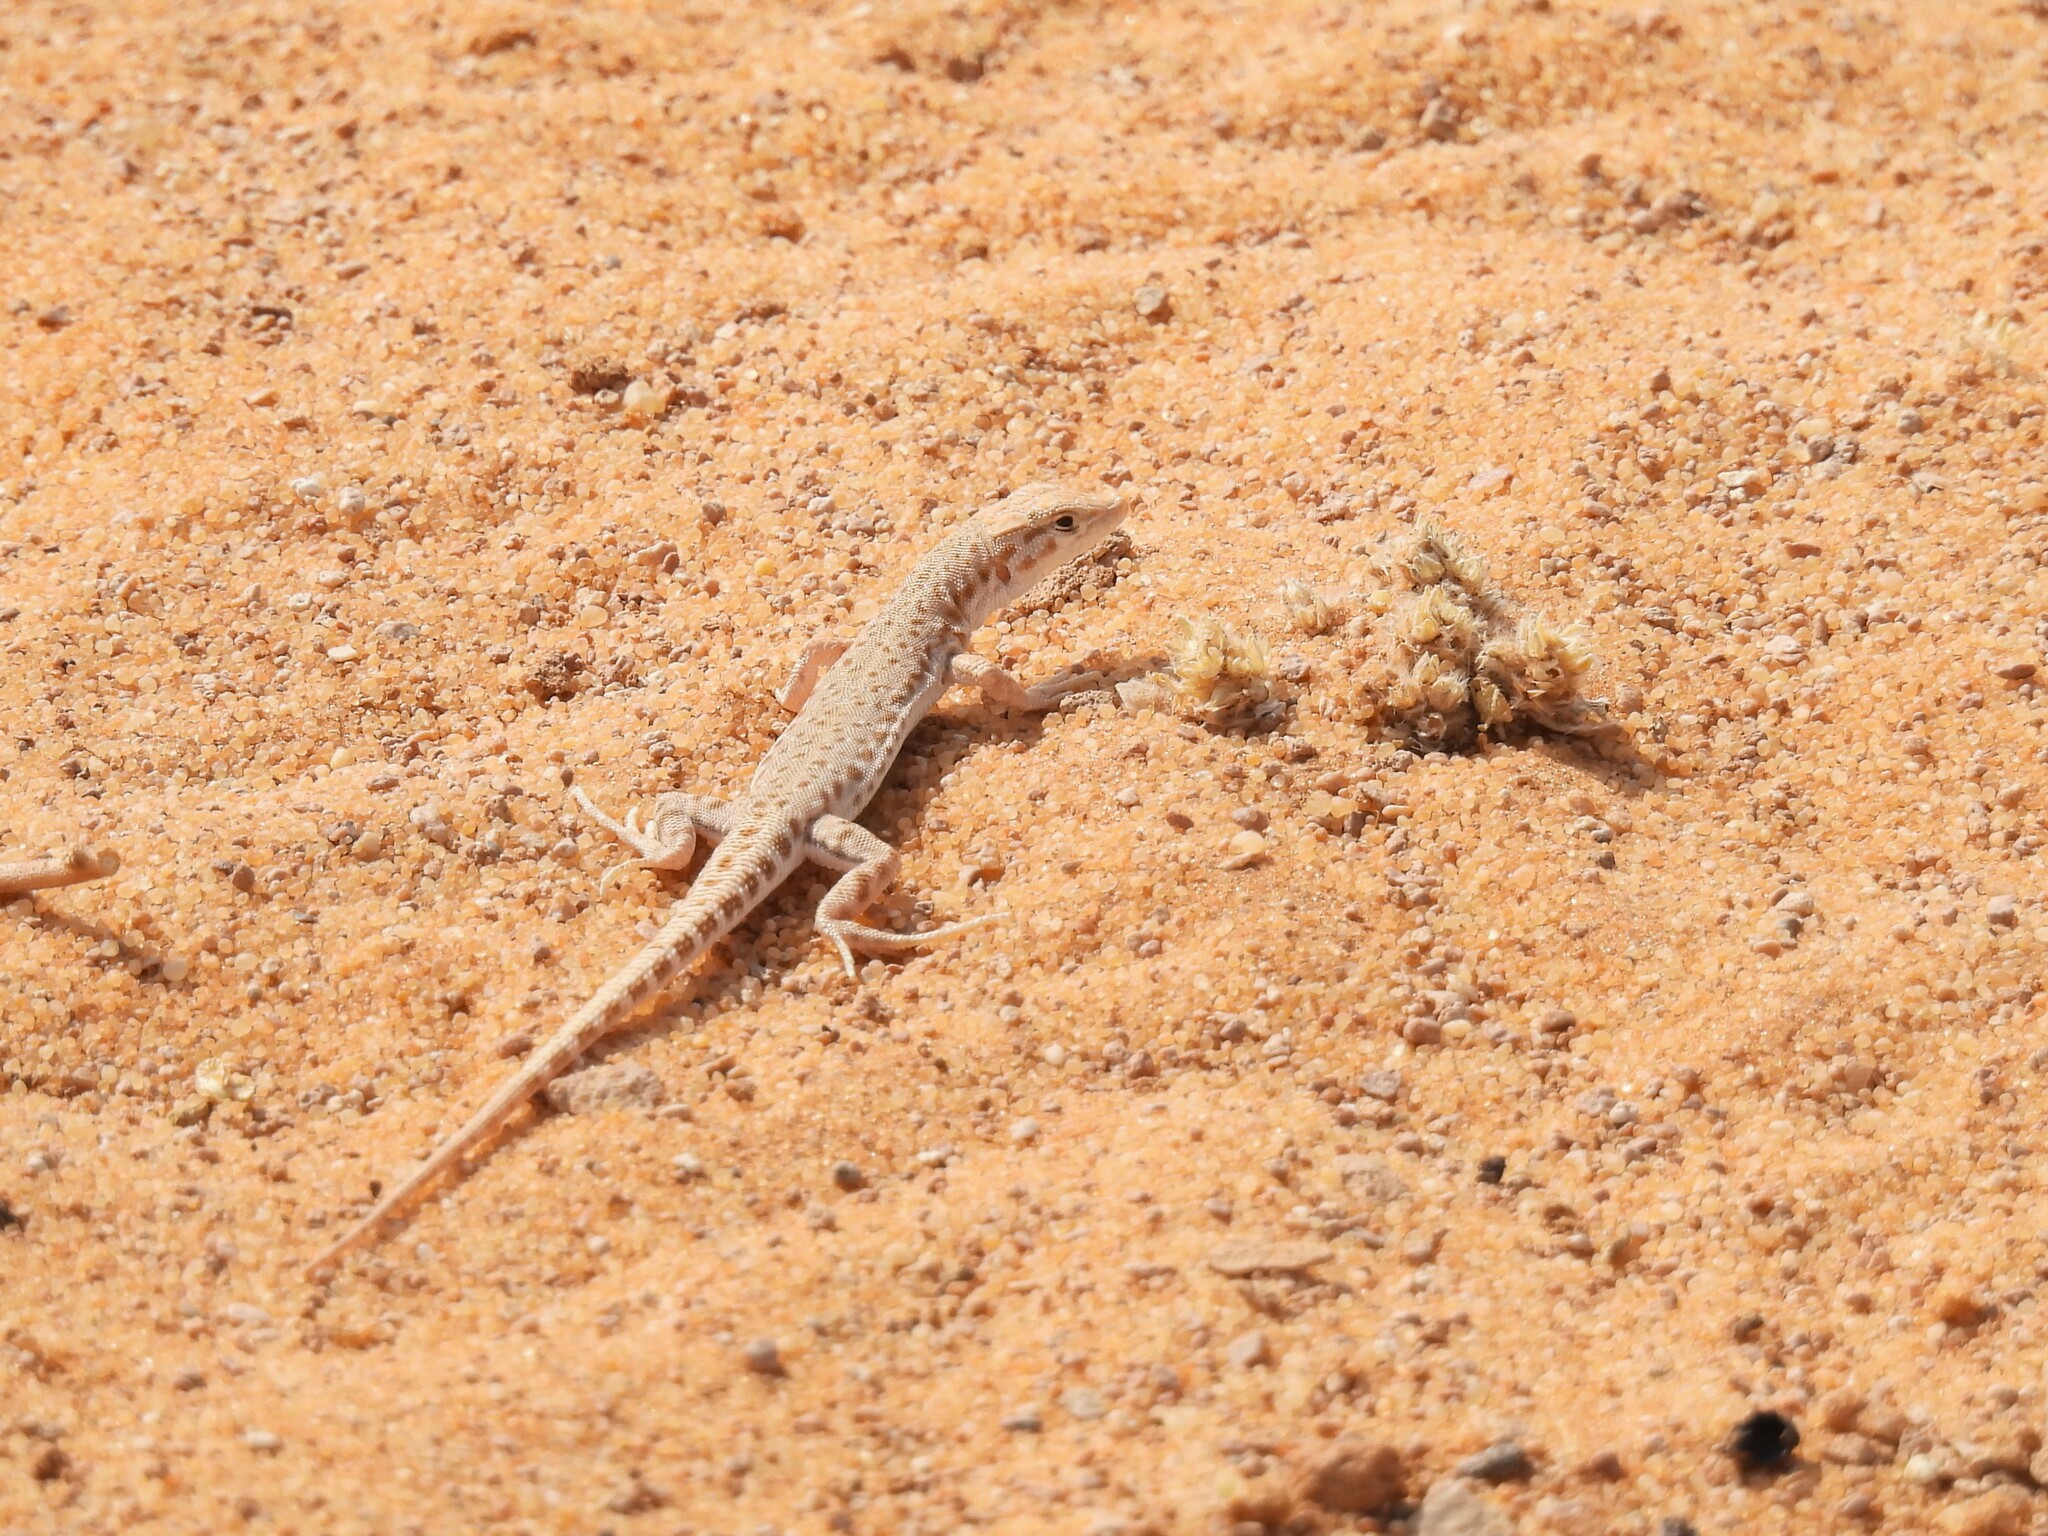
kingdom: Animalia
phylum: Chordata
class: Squamata
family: Lacertidae
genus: Mesalina
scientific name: Mesalina brevirostris
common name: Blanford's short-nosed desert lizard
